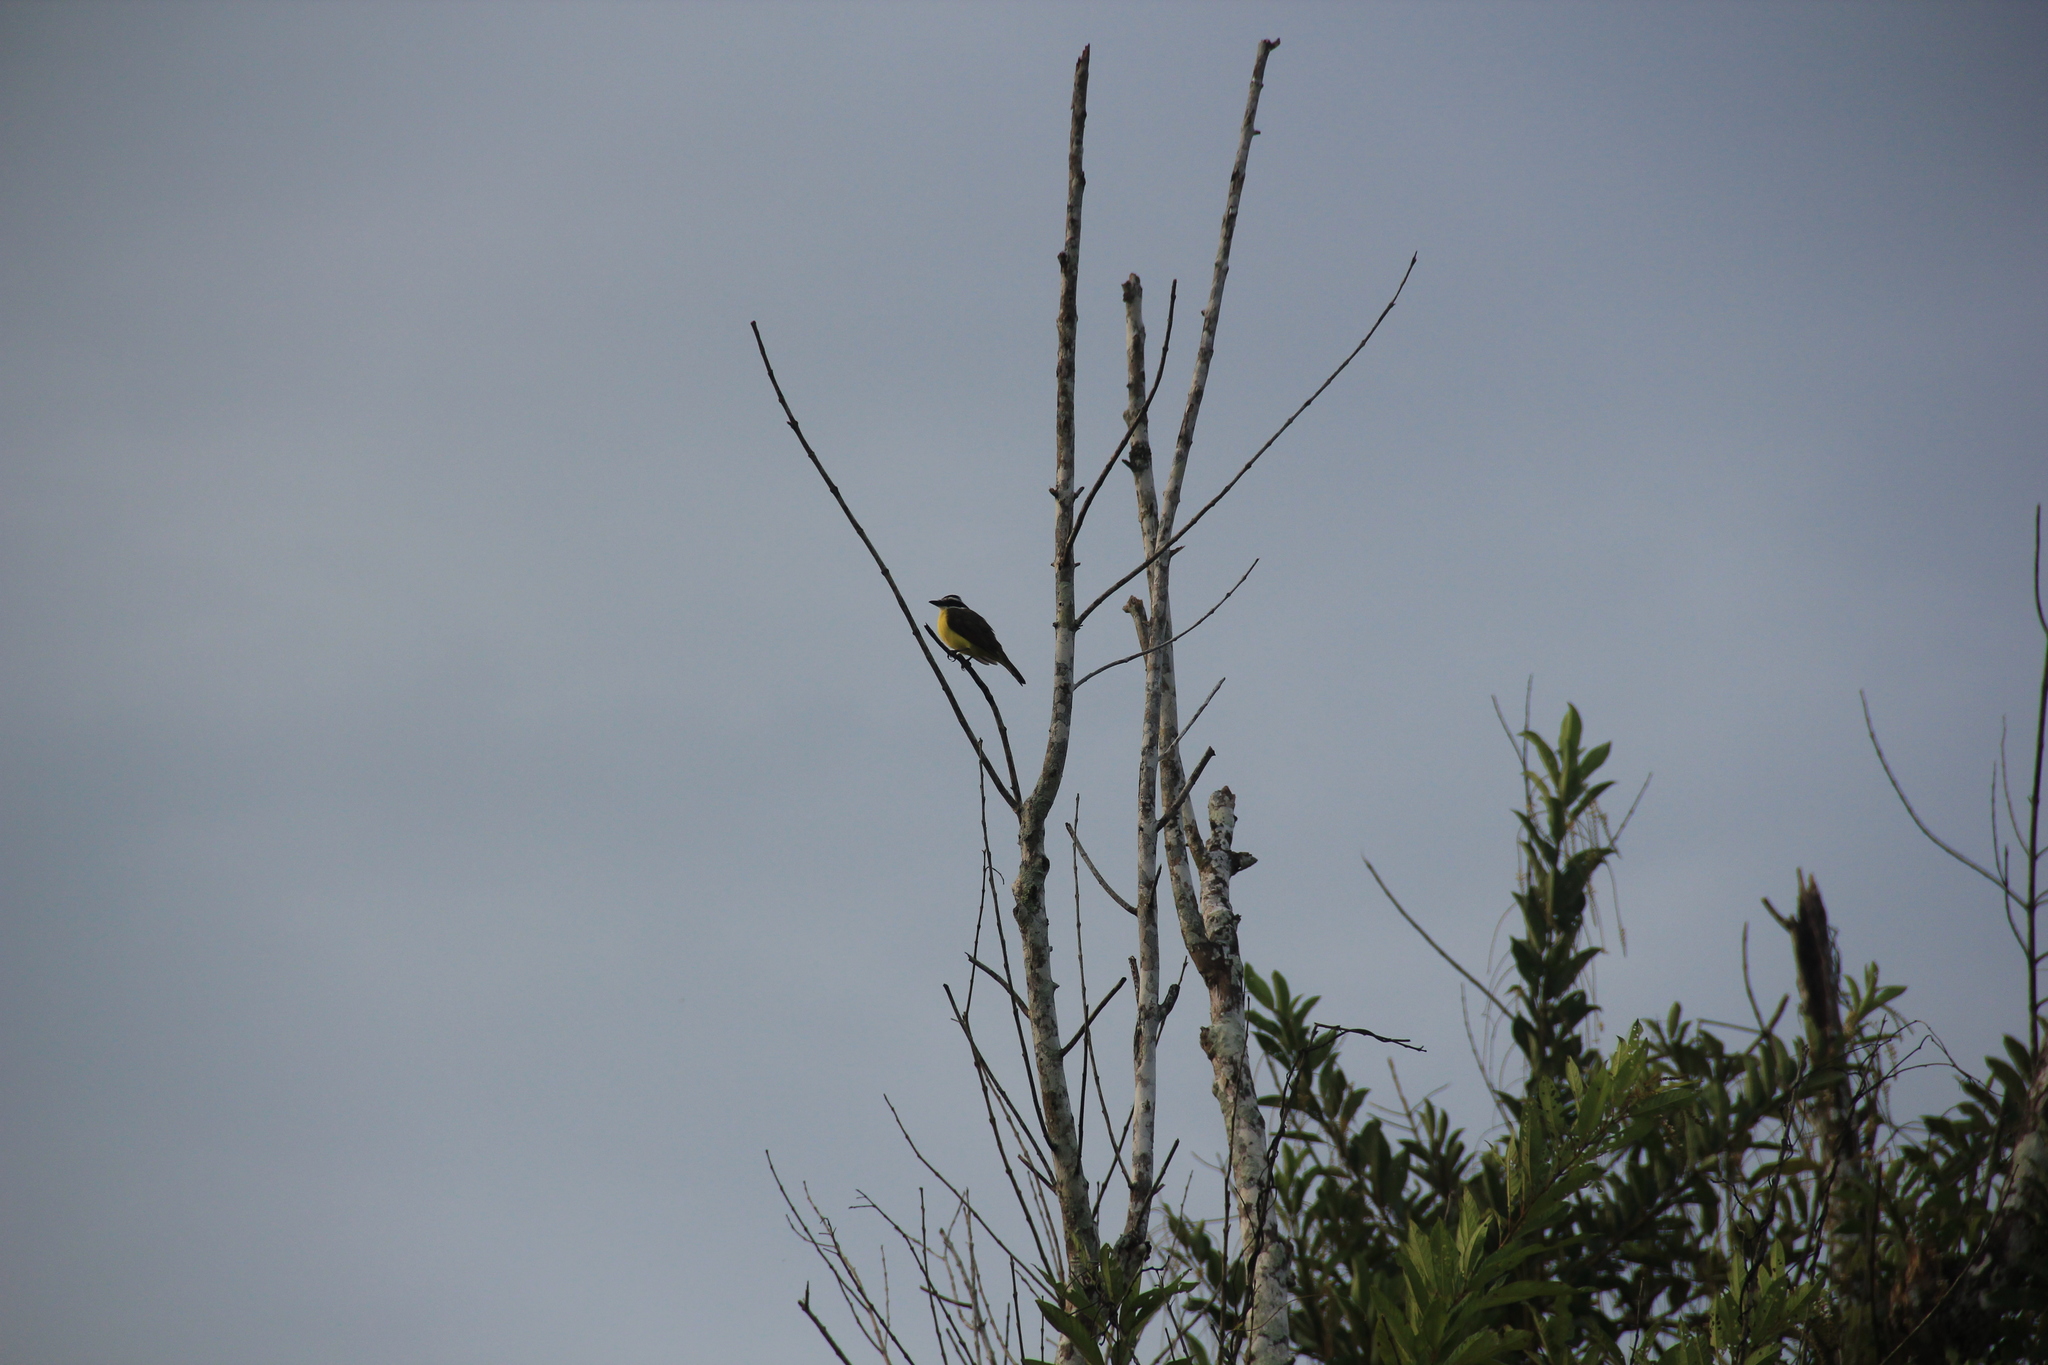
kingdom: Animalia
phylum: Chordata
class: Aves
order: Passeriformes
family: Tyrannidae
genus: Pitangus
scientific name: Pitangus sulphuratus
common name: Great kiskadee
